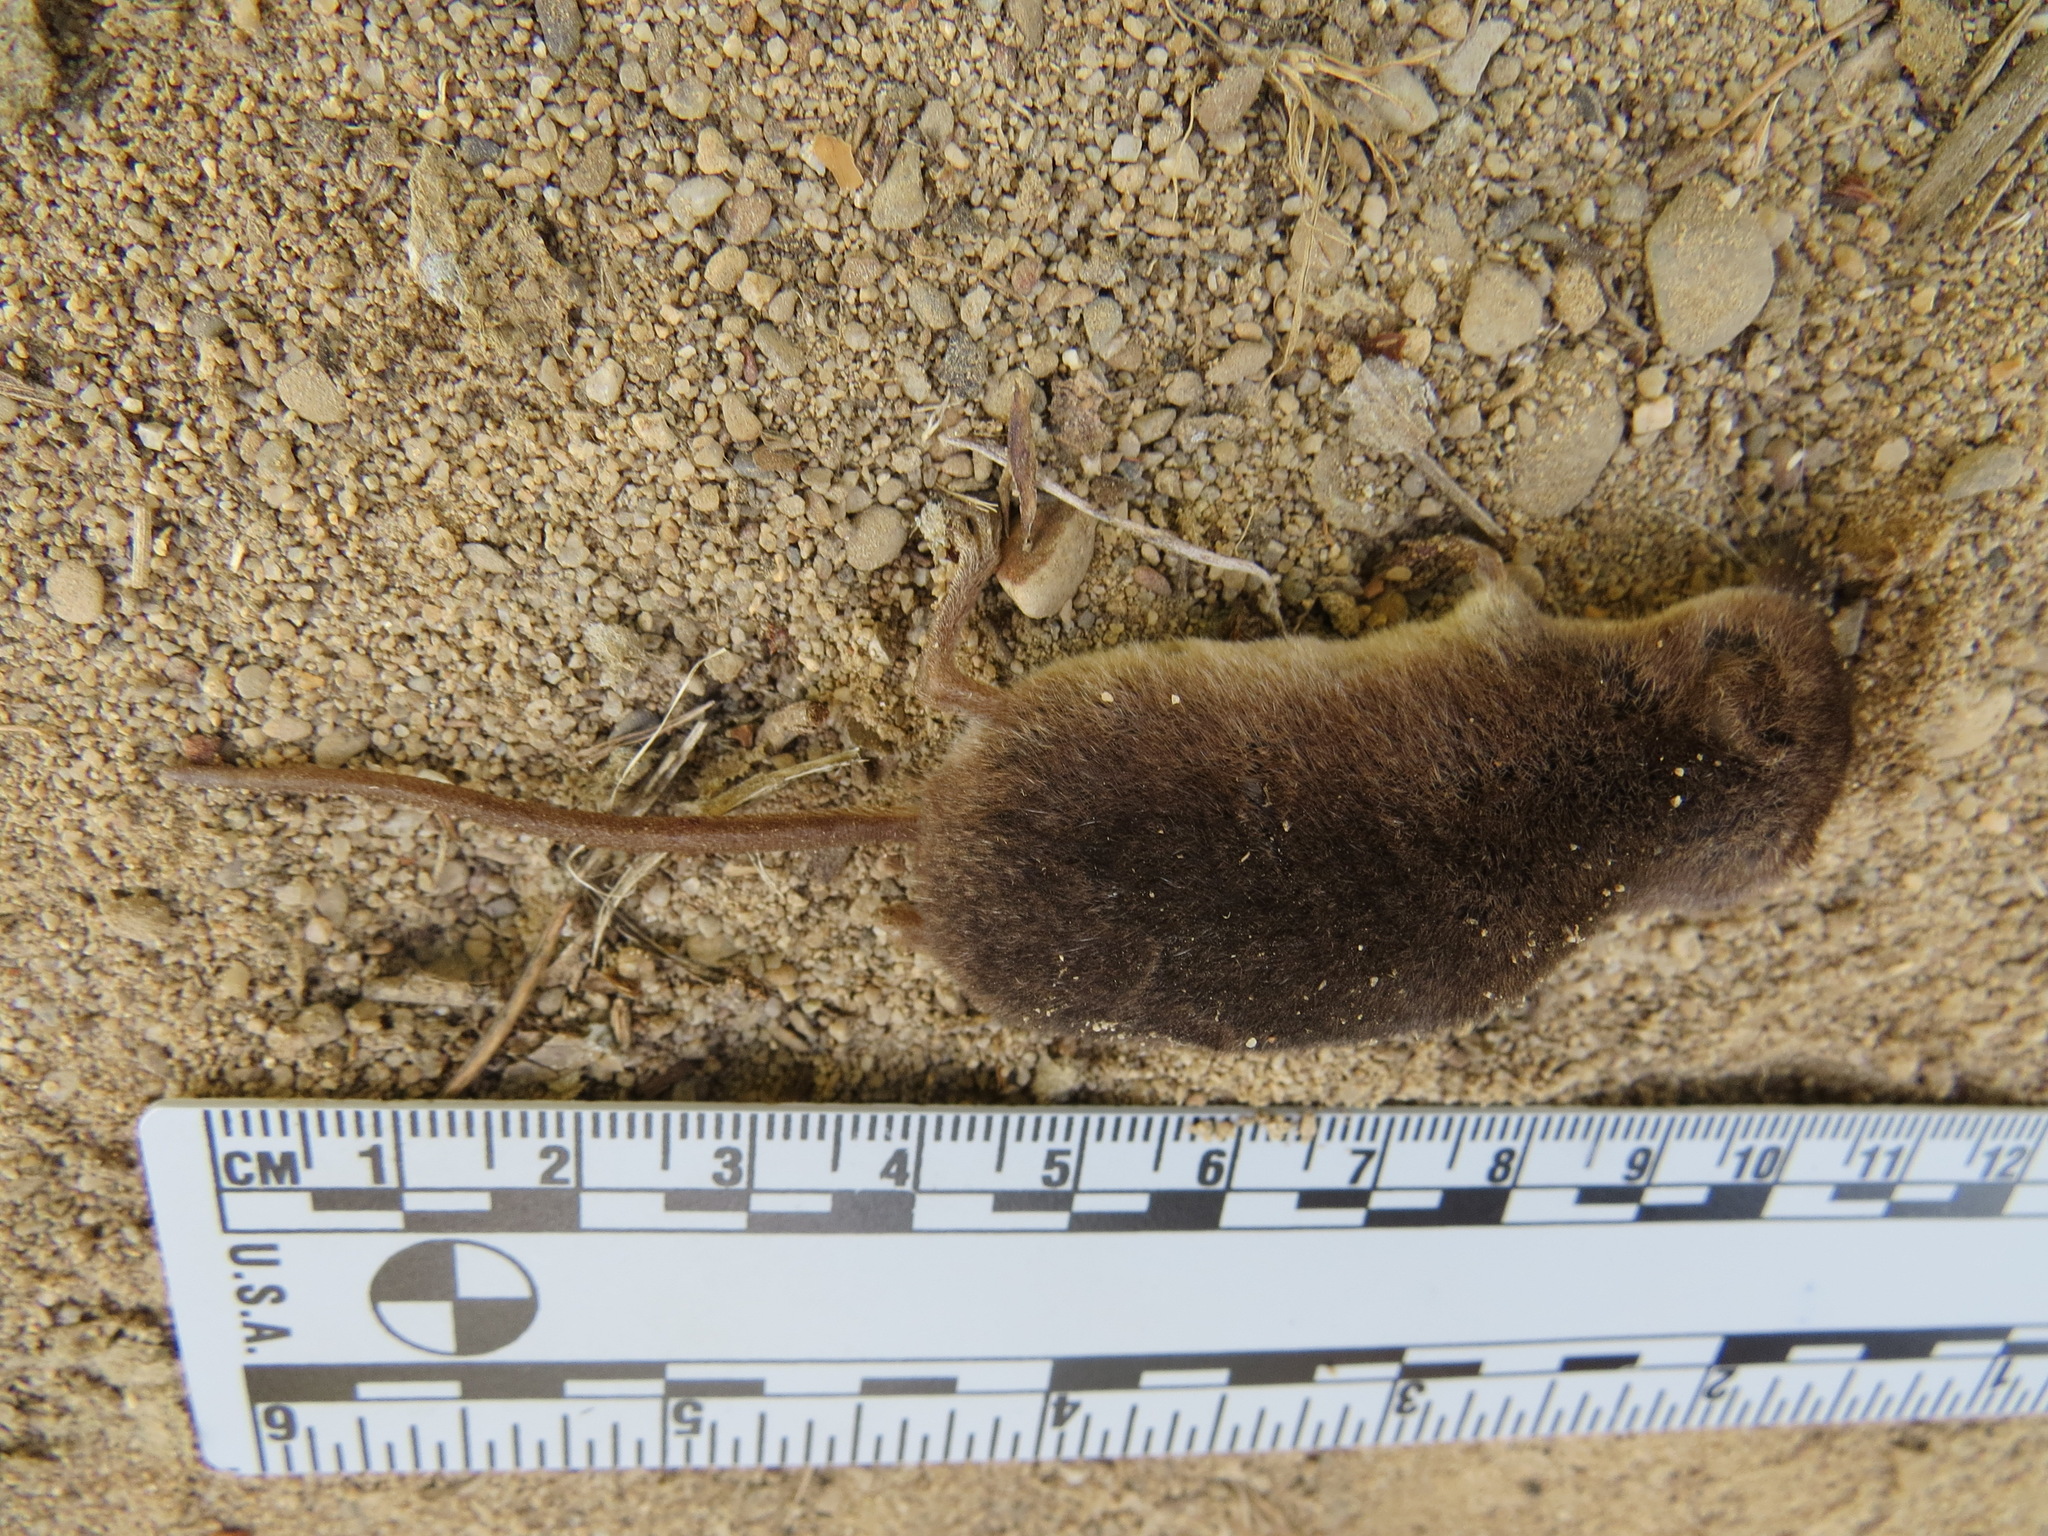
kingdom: Animalia
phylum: Chordata
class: Mammalia
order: Soricomorpha
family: Soricidae
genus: Sorex
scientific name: Sorex vagrans
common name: Vagrant shrew
